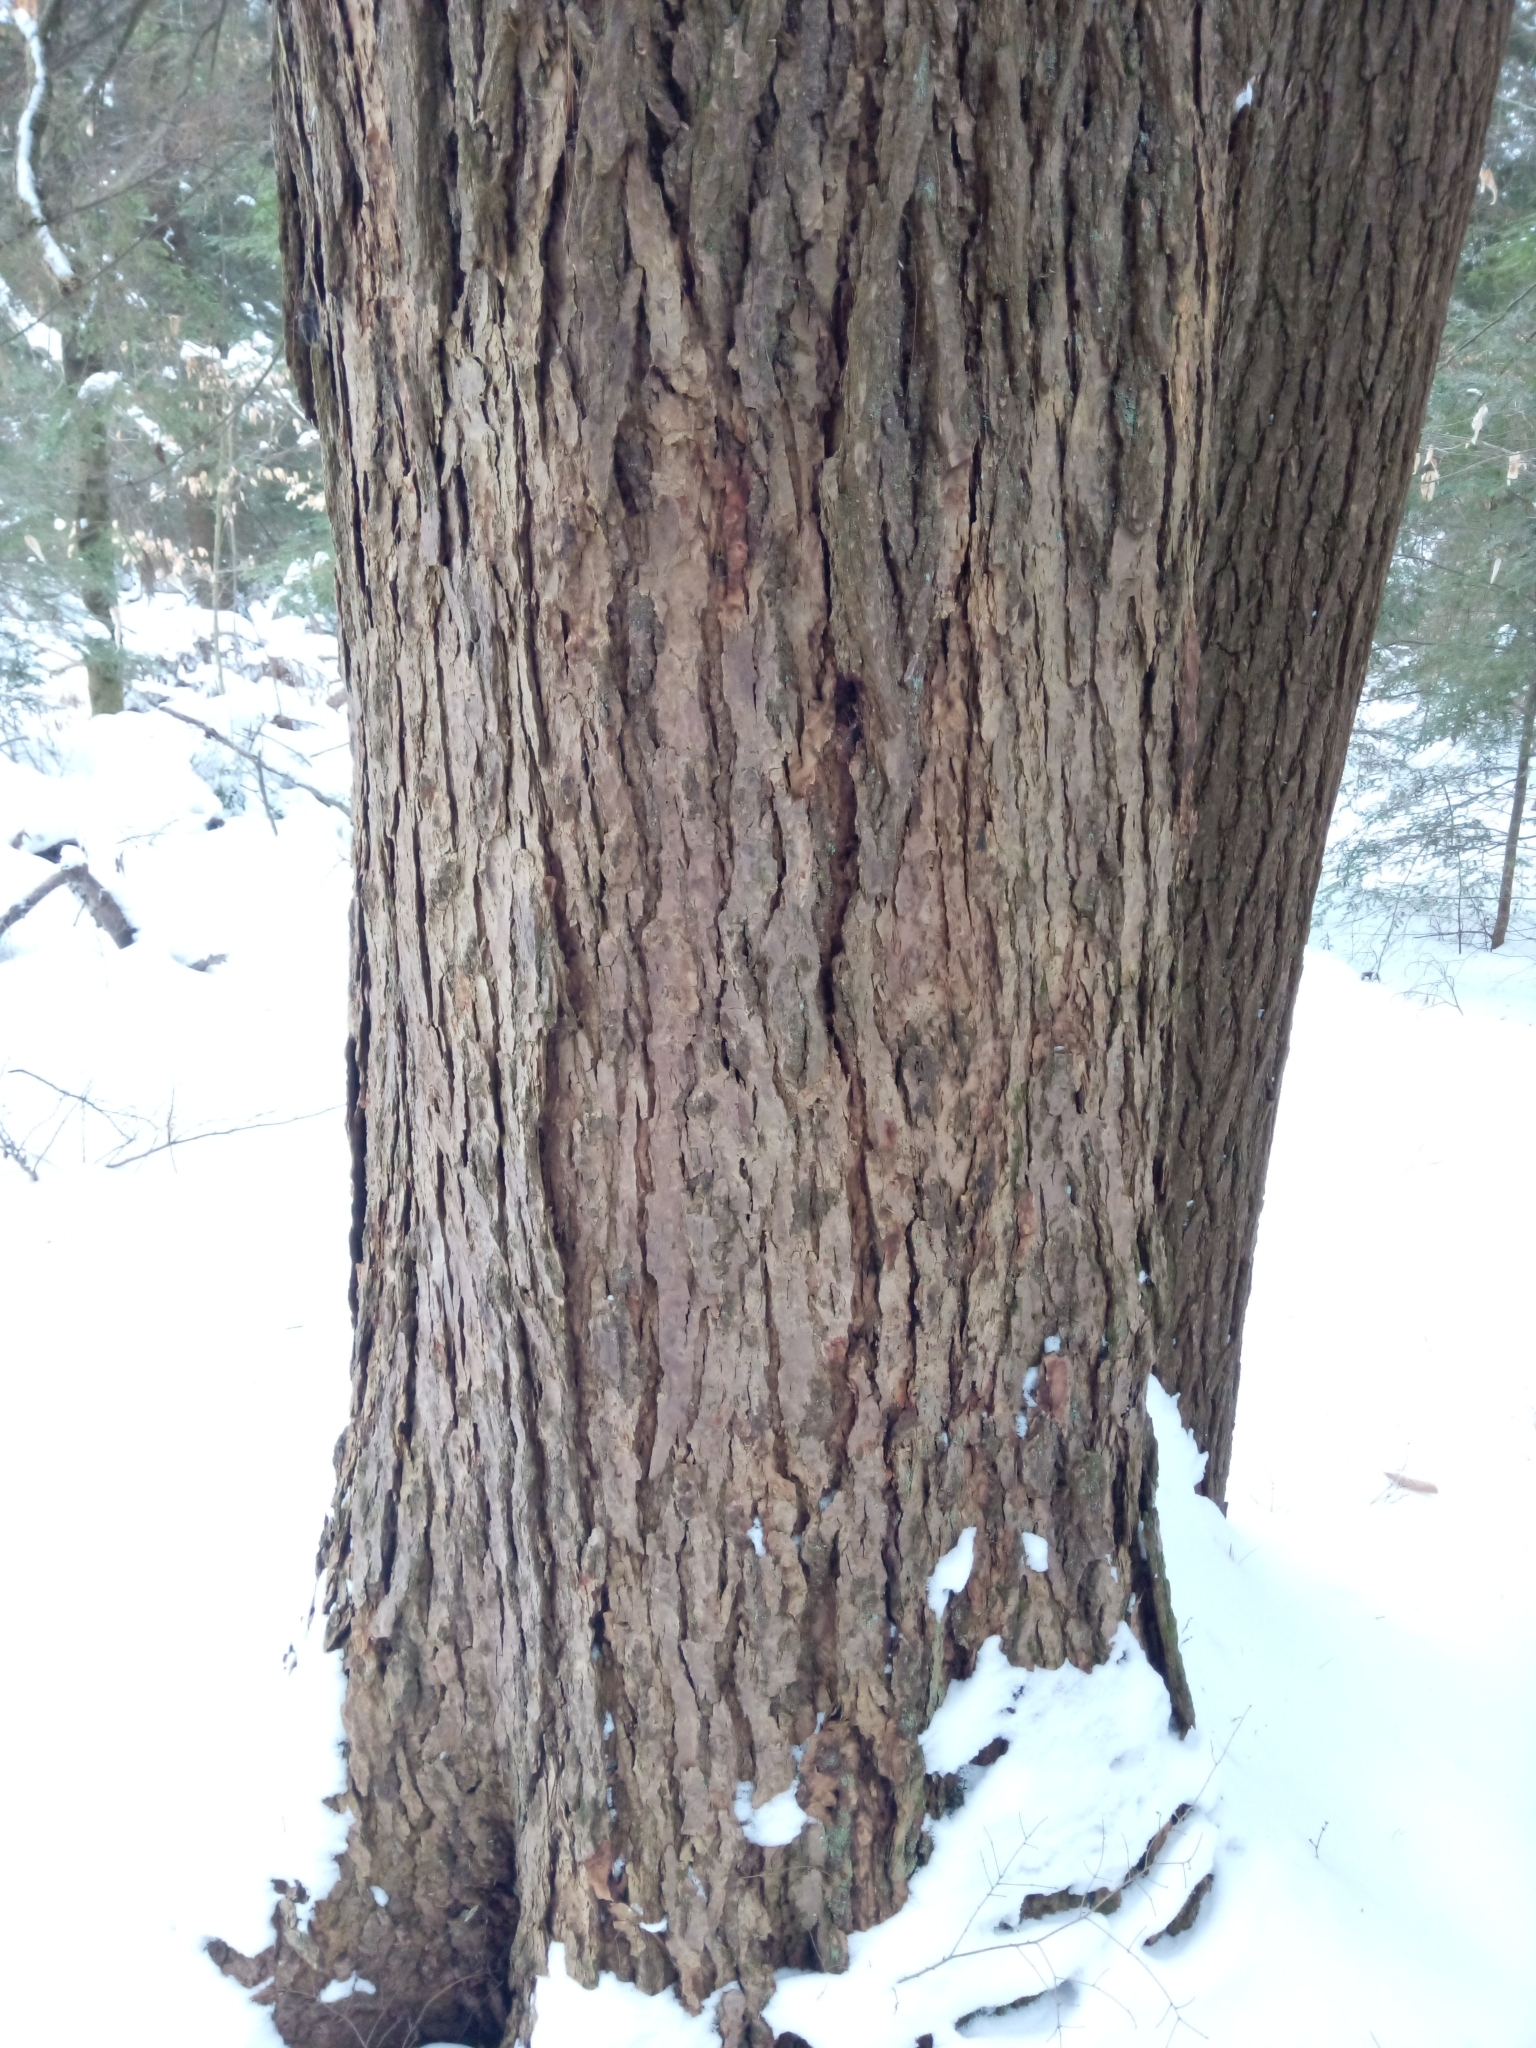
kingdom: Plantae
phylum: Tracheophyta
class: Pinopsida
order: Pinales
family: Pinaceae
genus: Tsuga
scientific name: Tsuga canadensis
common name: Eastern hemlock
